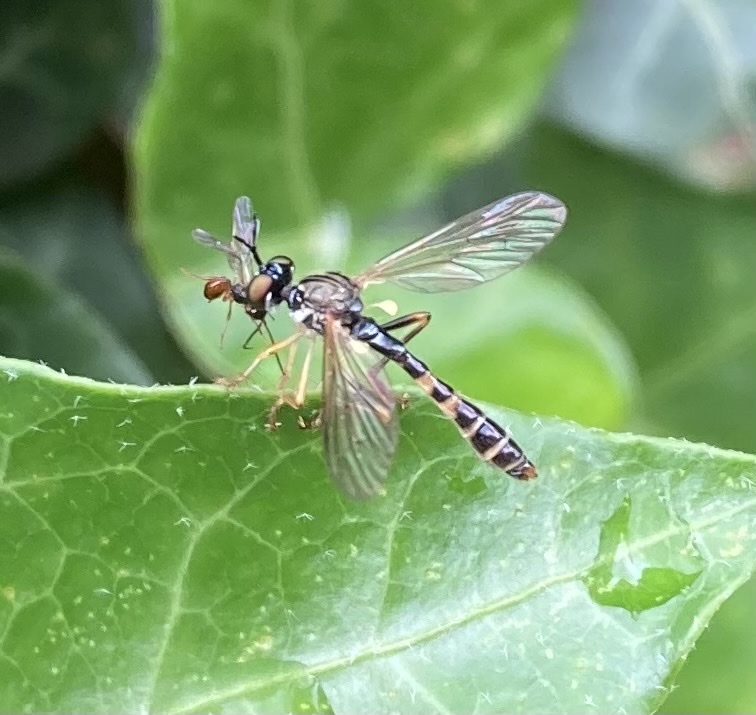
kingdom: Animalia
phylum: Arthropoda
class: Insecta
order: Diptera
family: Asilidae
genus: Dioctria
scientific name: Dioctria linearis
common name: Small yellow-legged robberfly
